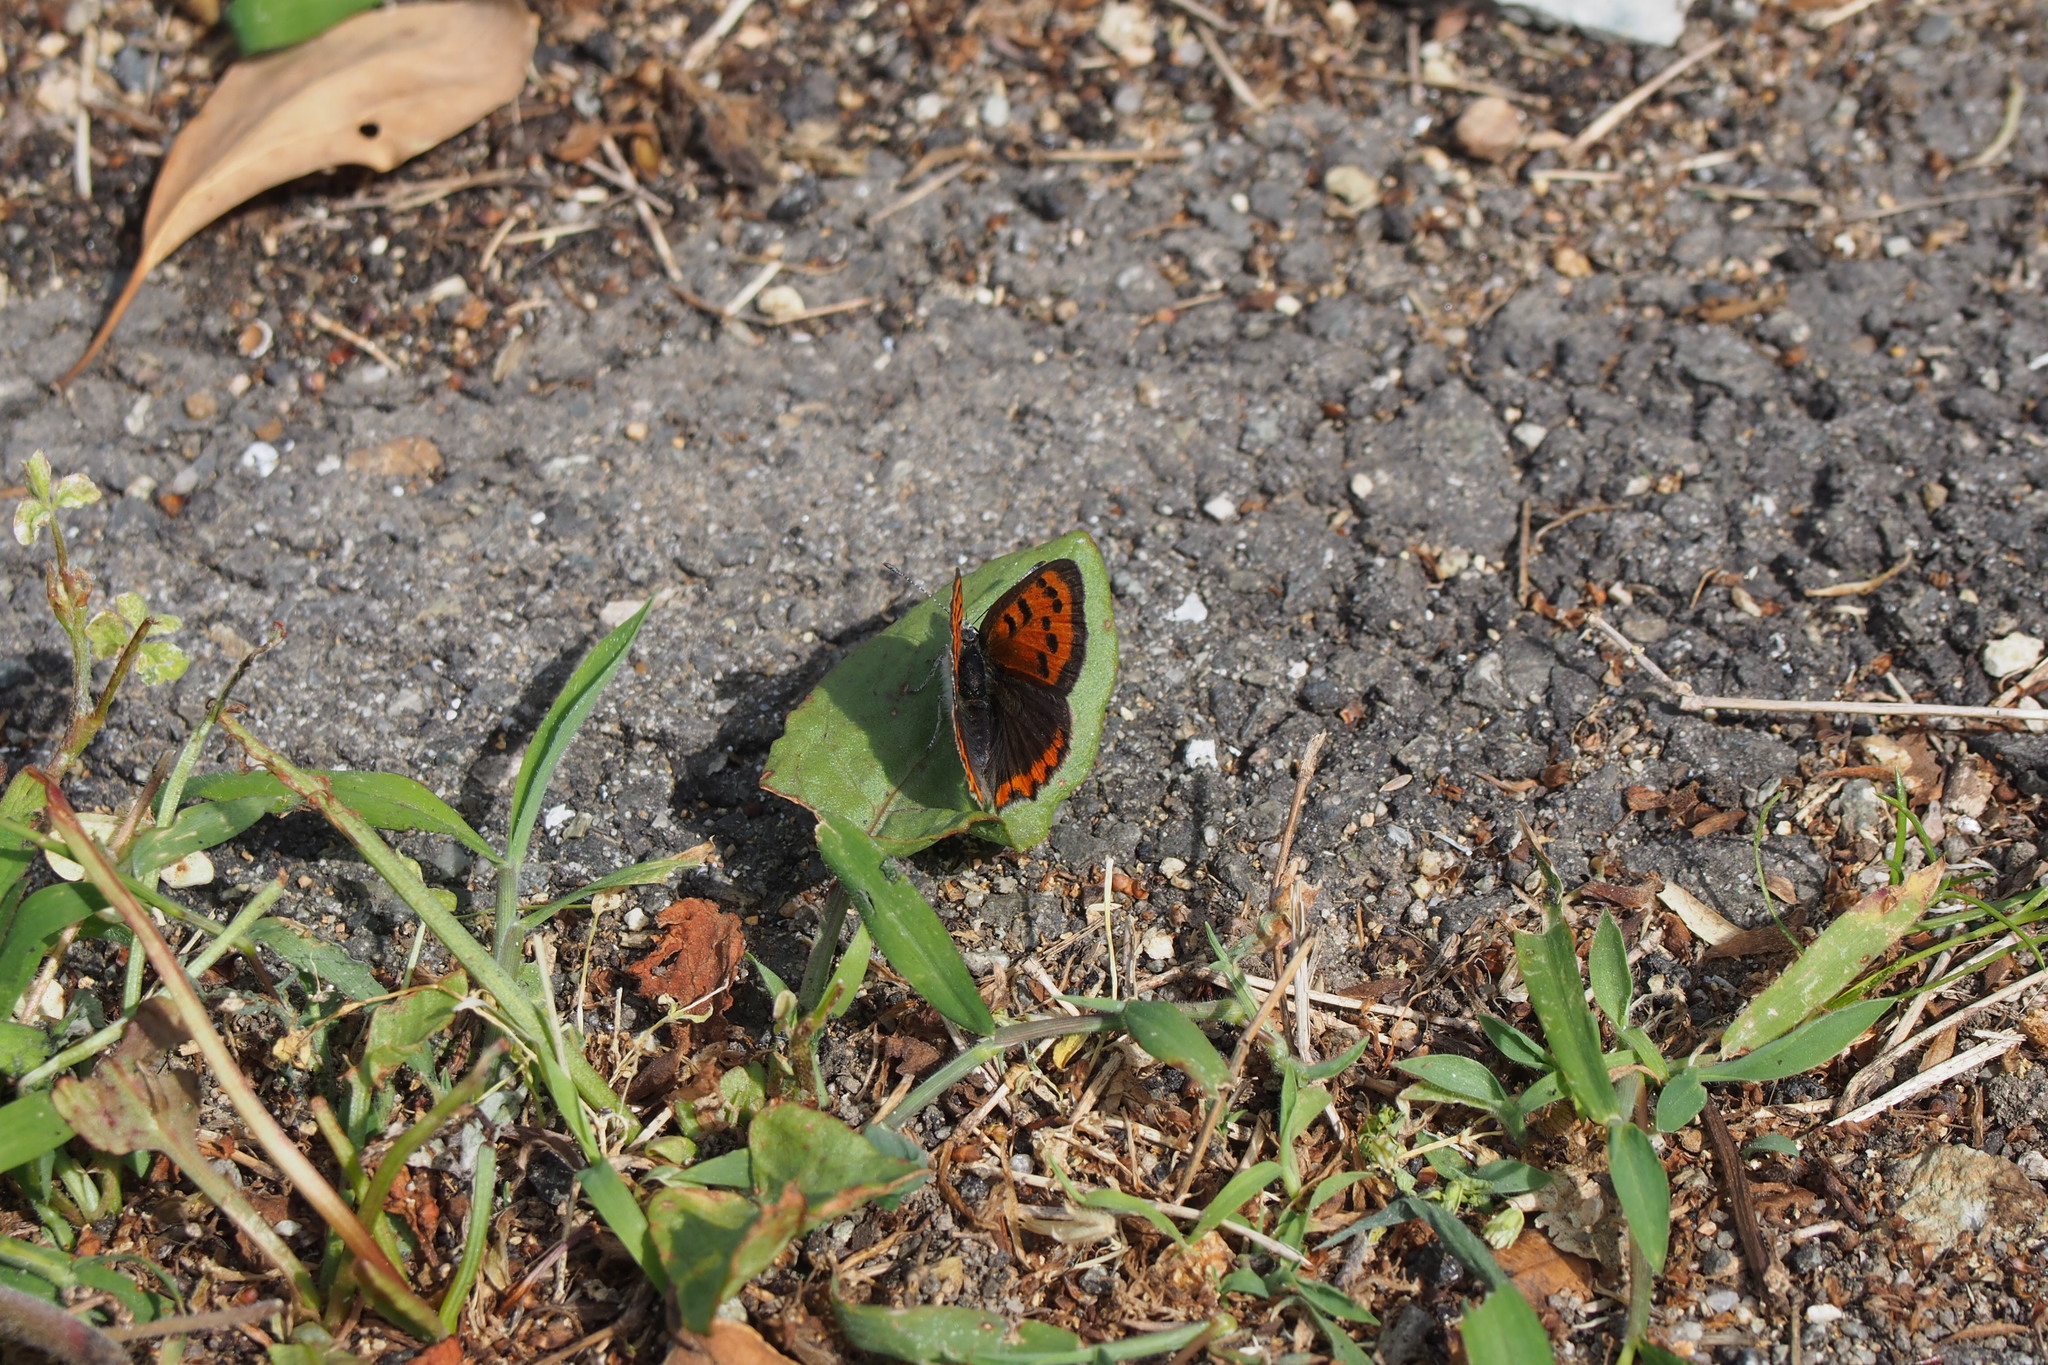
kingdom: Animalia
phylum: Arthropoda
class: Insecta
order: Lepidoptera
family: Lycaenidae
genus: Lycaena
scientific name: Lycaena phlaeas
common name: Small copper
